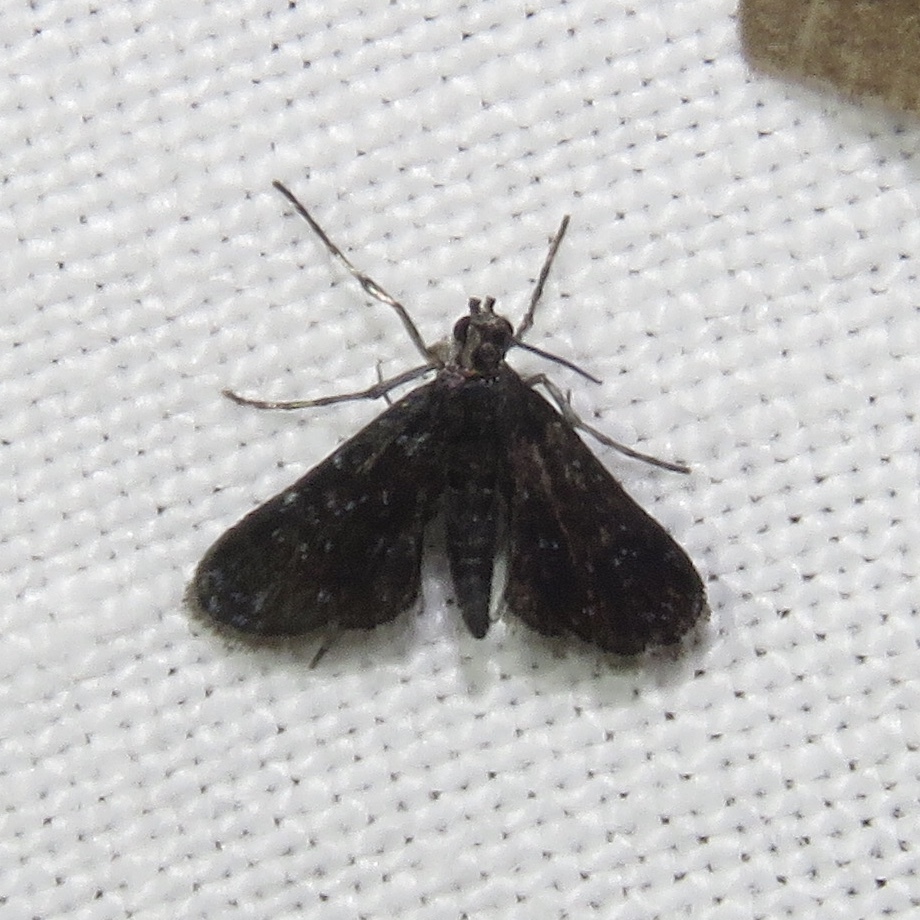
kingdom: Animalia
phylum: Arthropoda
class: Insecta
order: Lepidoptera
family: Crambidae
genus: Elophila
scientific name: Elophila tinealis
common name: Black duckweed moth
